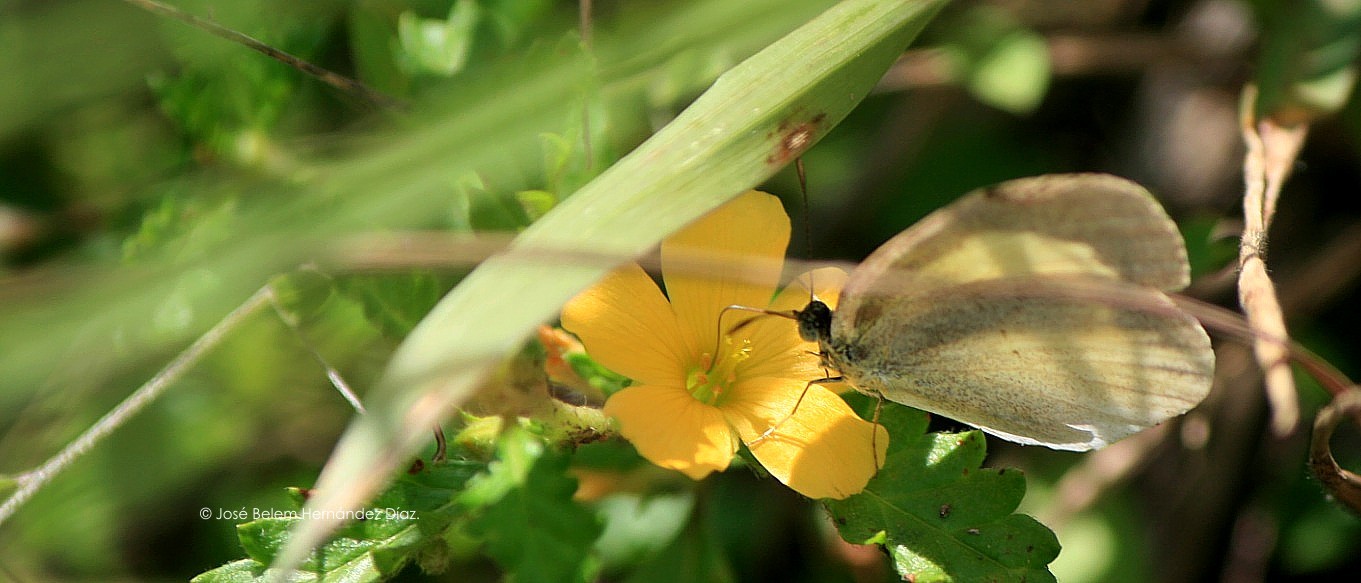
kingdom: Animalia
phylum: Arthropoda
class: Insecta
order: Lepidoptera
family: Pieridae
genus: Eurema
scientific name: Eurema daira
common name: Barred sulphur
